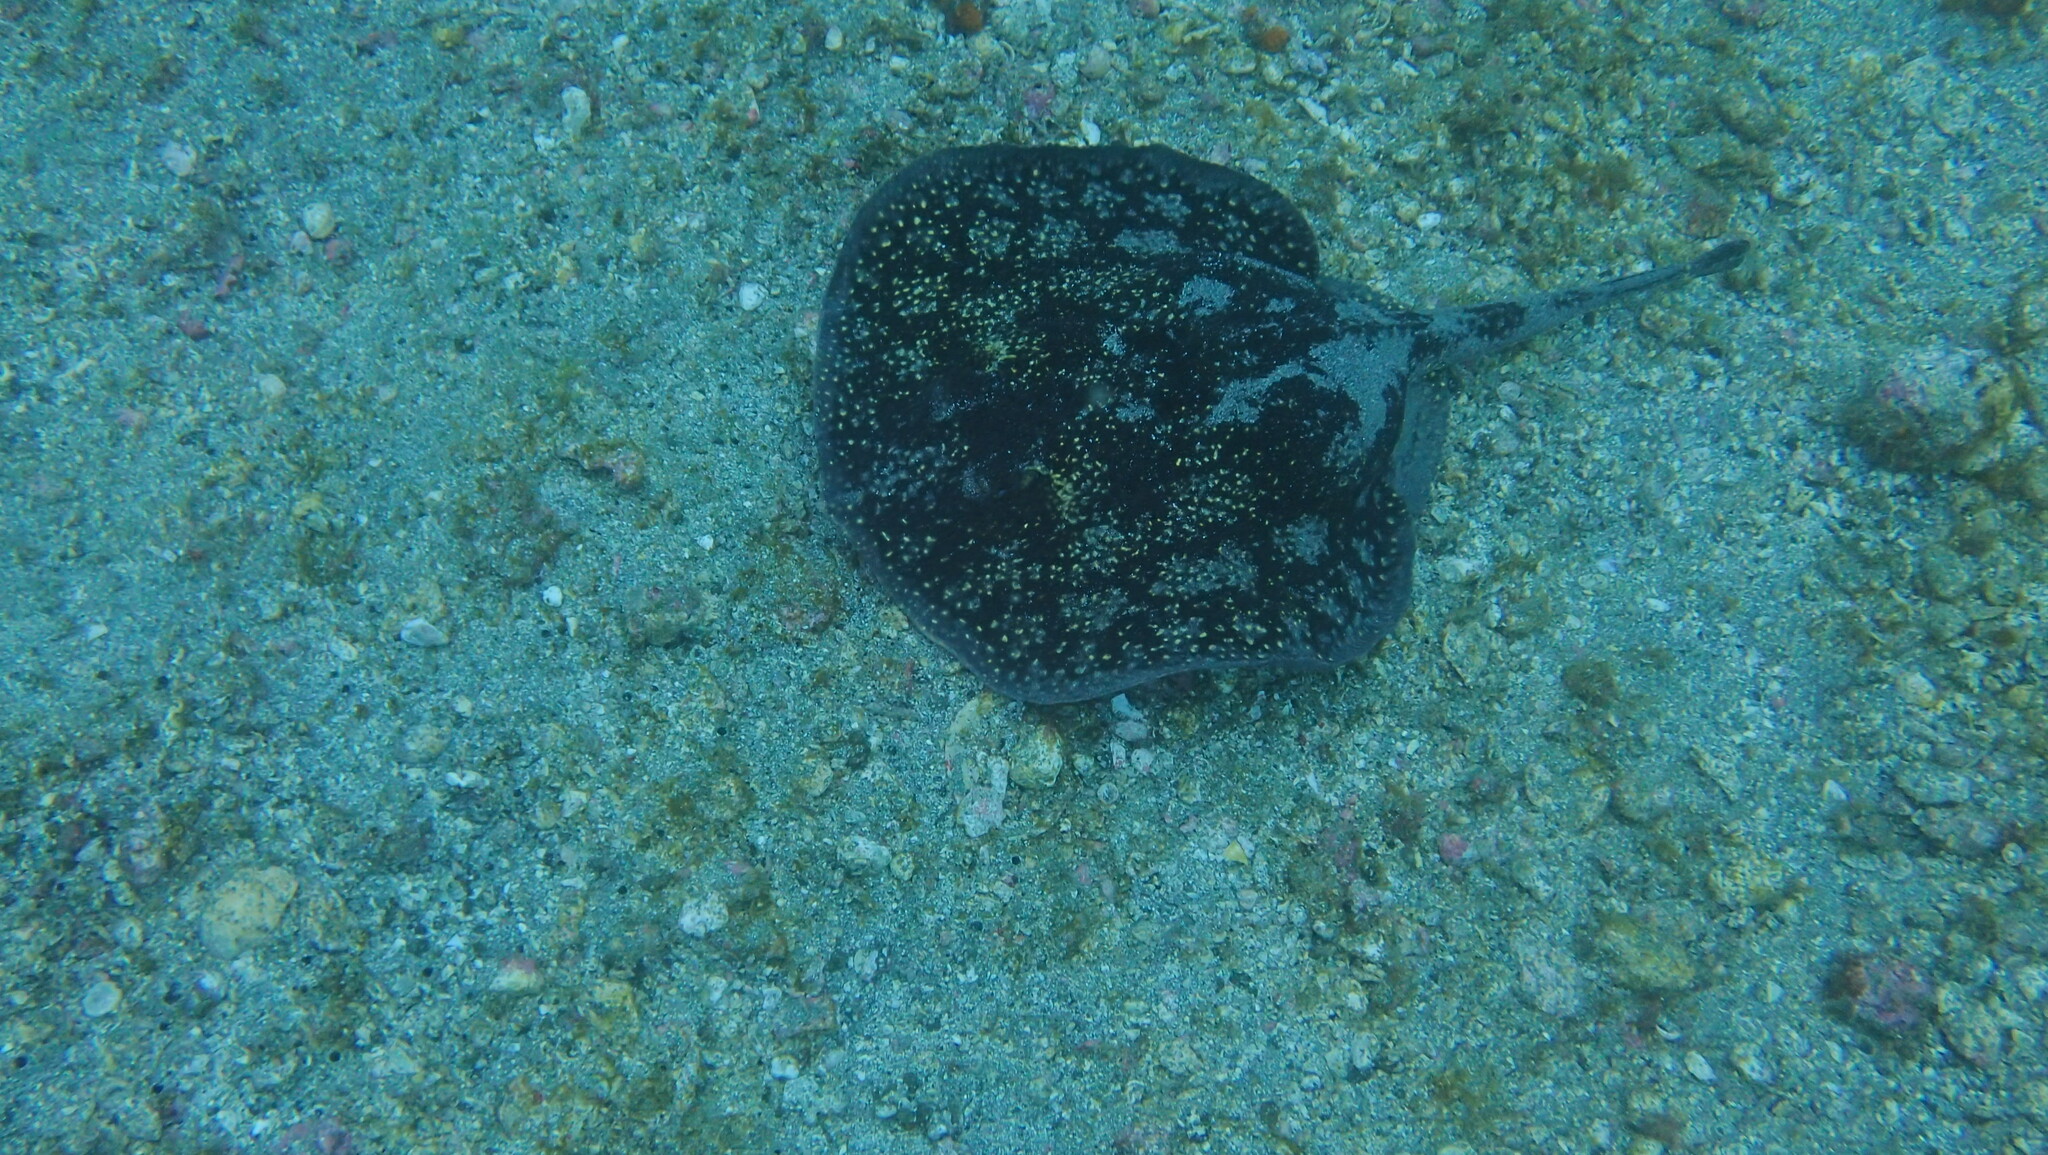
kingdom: Animalia
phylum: Chordata
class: Elasmobranchii
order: Myliobatiformes
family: Urotrygonidae
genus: Urobatis
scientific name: Urobatis tumbesensis
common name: Tumbes round stingray
